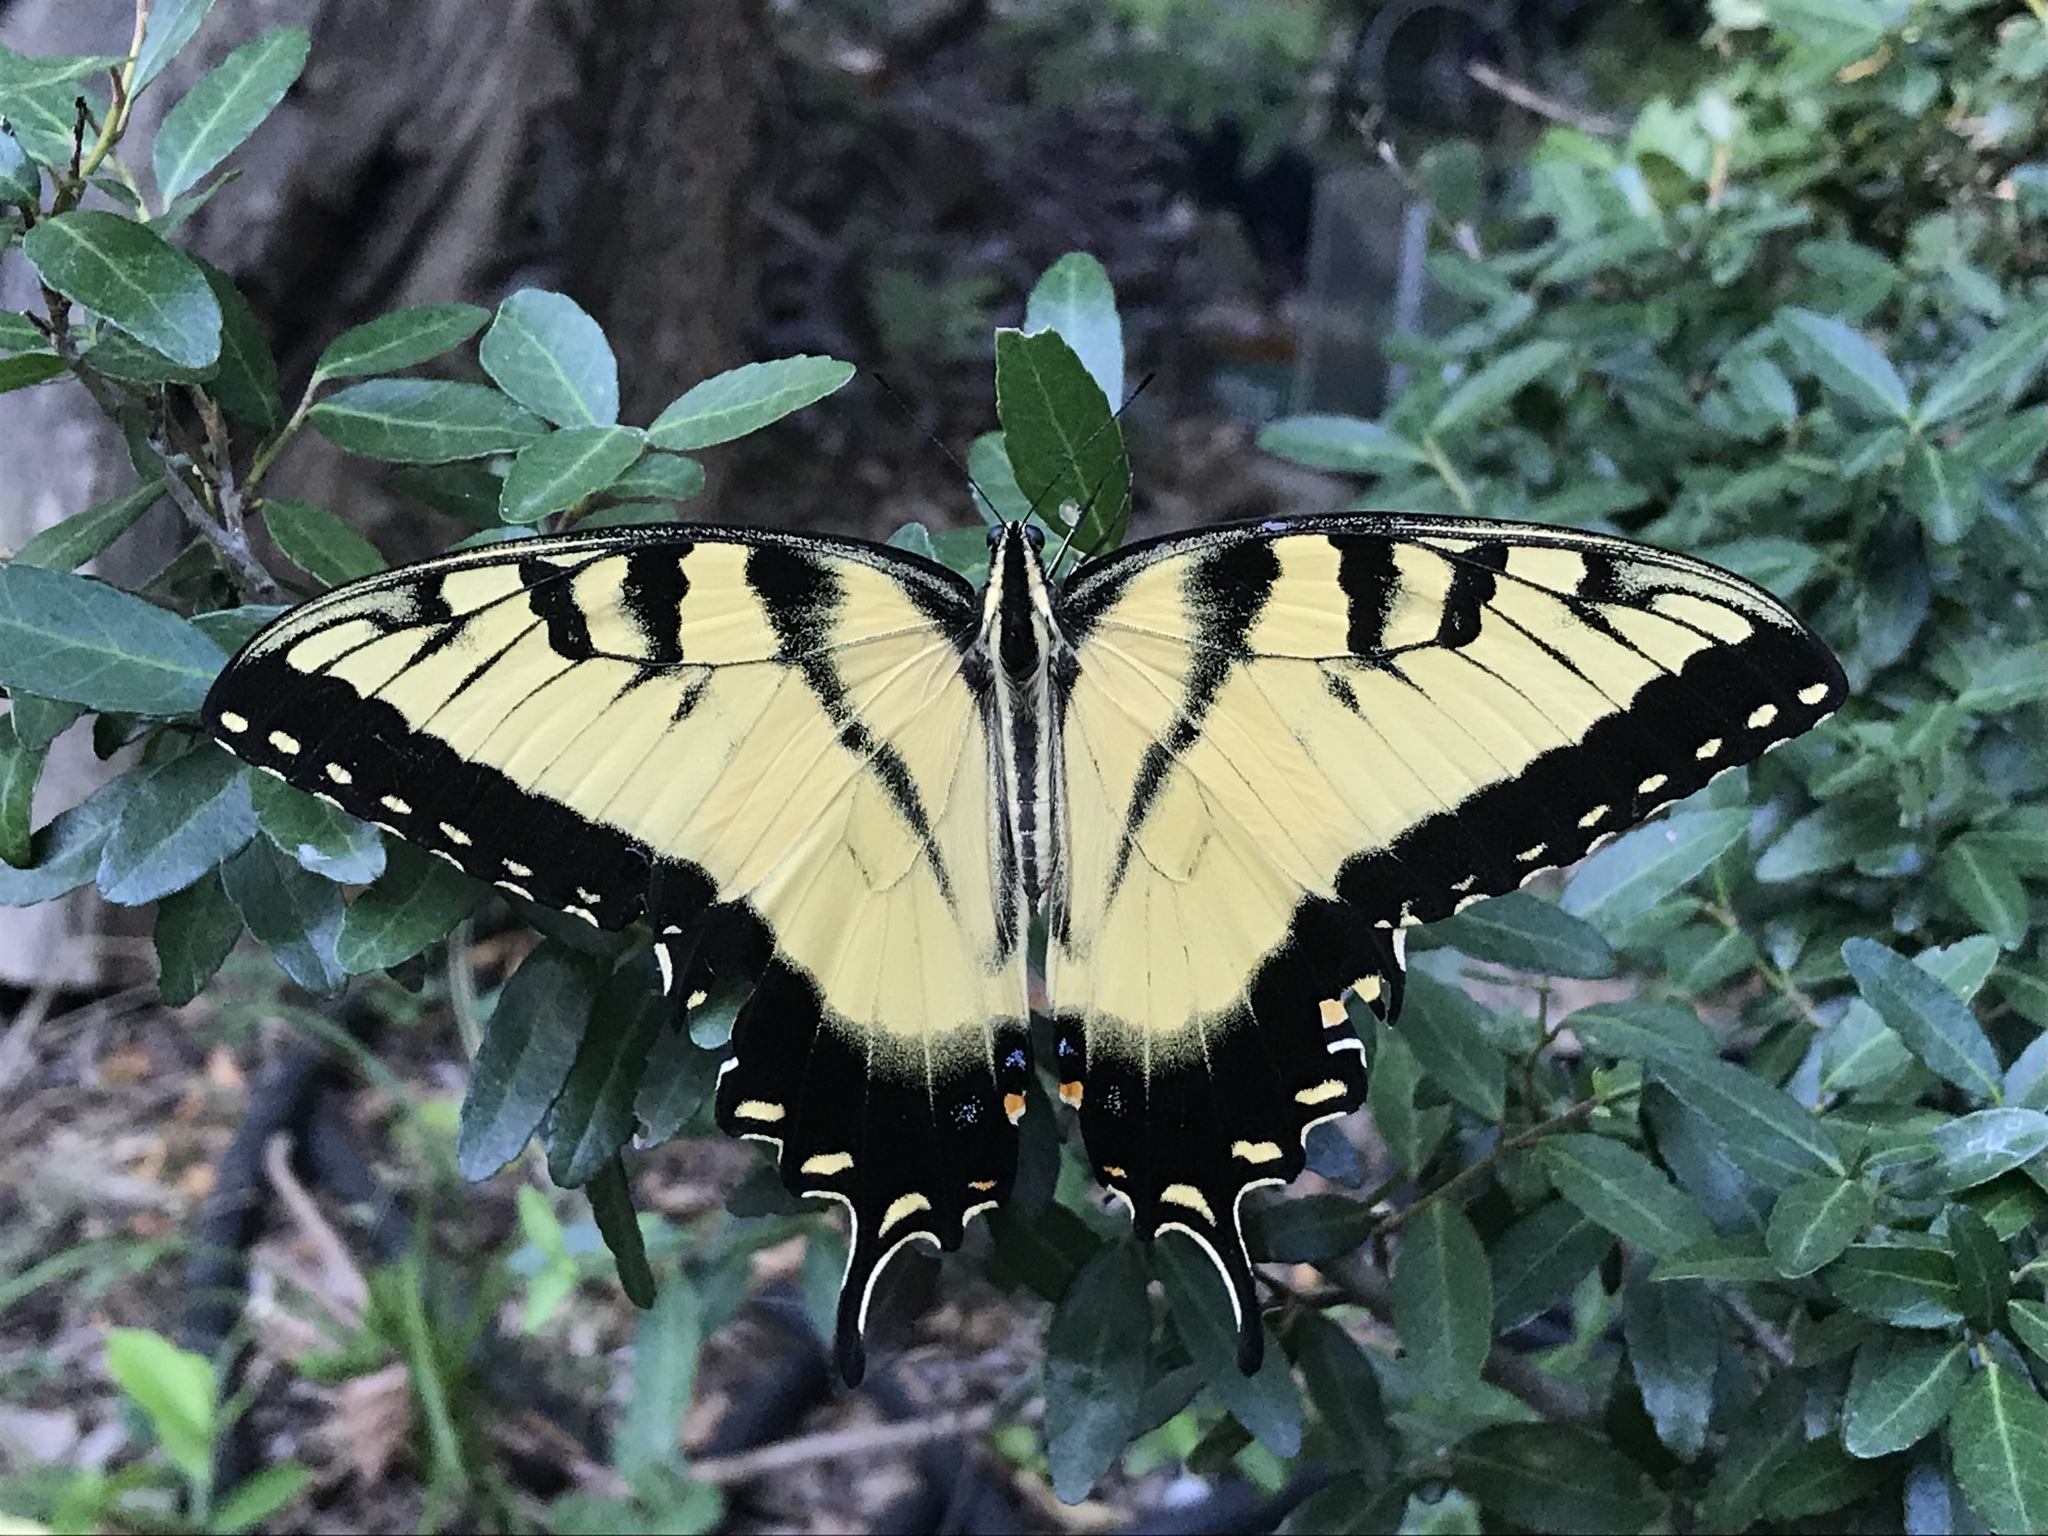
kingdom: Animalia
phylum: Arthropoda
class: Insecta
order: Lepidoptera
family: Papilionidae
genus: Papilio
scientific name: Papilio glaucus
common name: Tiger swallowtail
